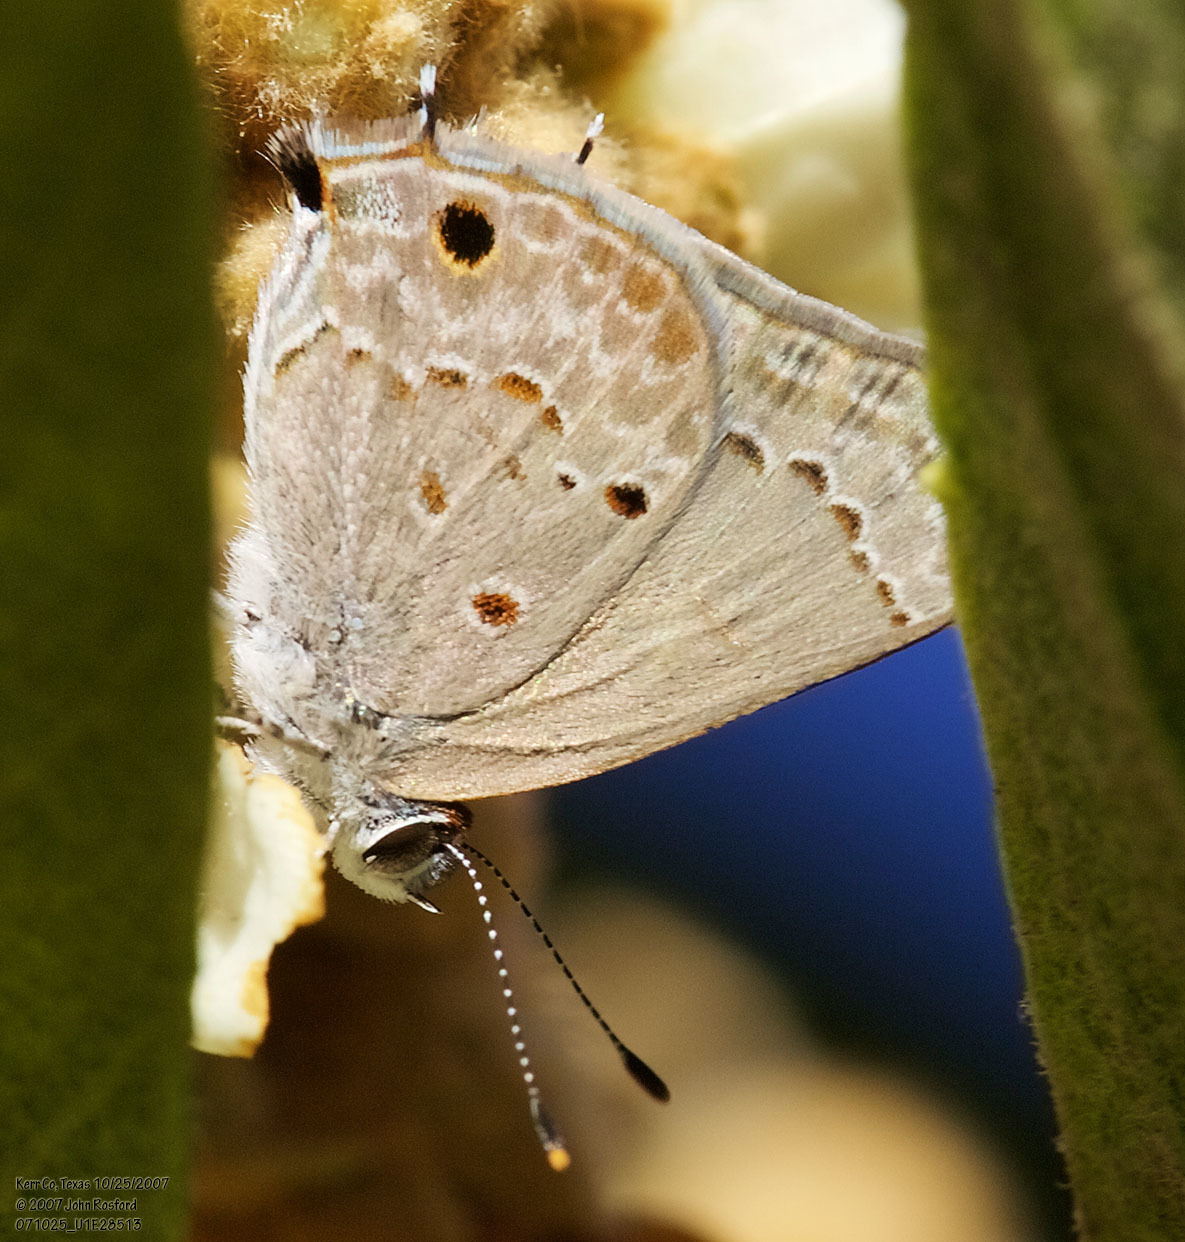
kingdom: Animalia
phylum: Arthropoda
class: Insecta
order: Lepidoptera
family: Lycaenidae
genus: Callicista
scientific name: Callicista columella
